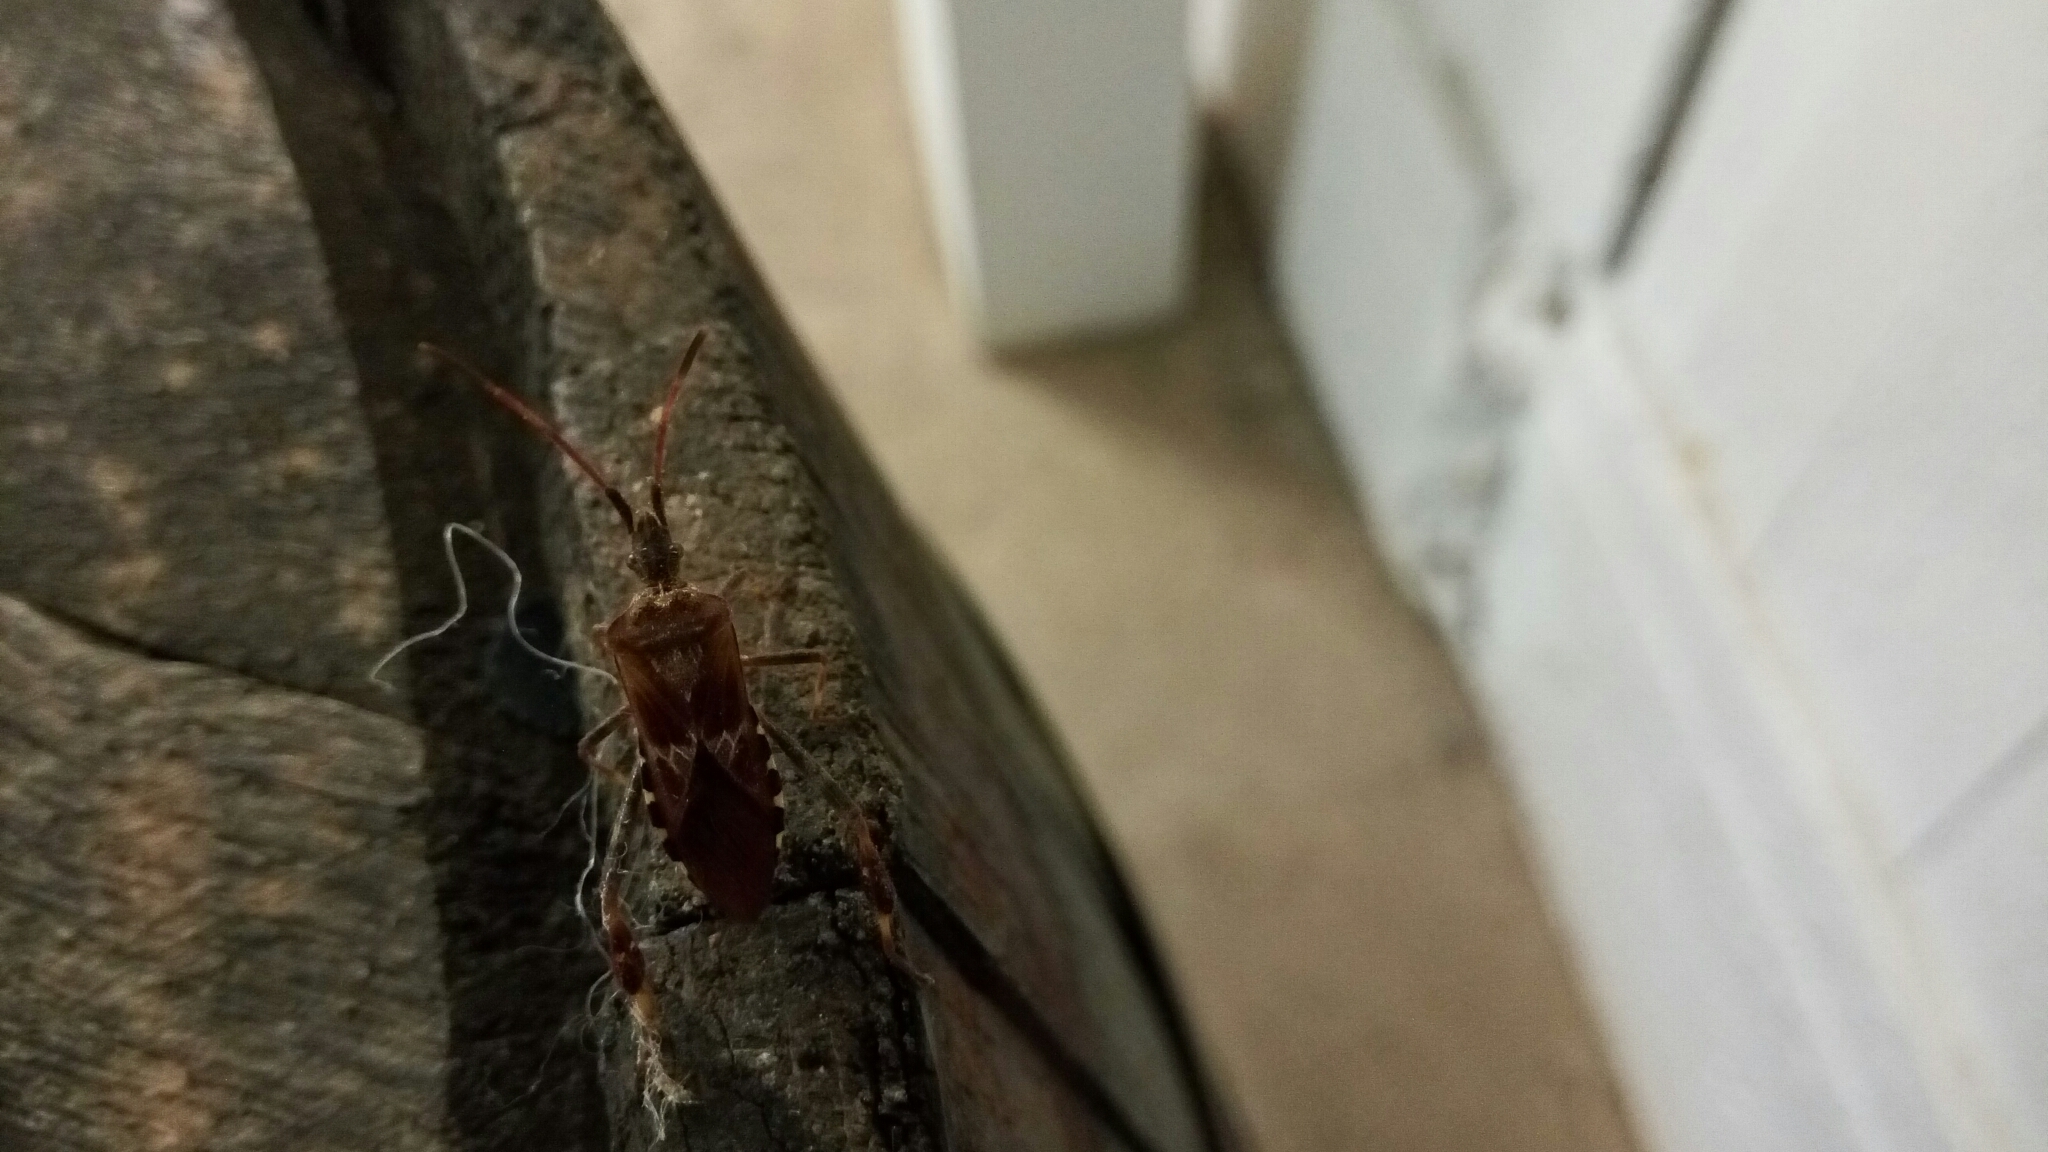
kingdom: Animalia
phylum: Arthropoda
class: Insecta
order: Hemiptera
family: Coreidae
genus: Leptoglossus
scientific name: Leptoglossus occidentalis
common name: Western conifer-seed bug
